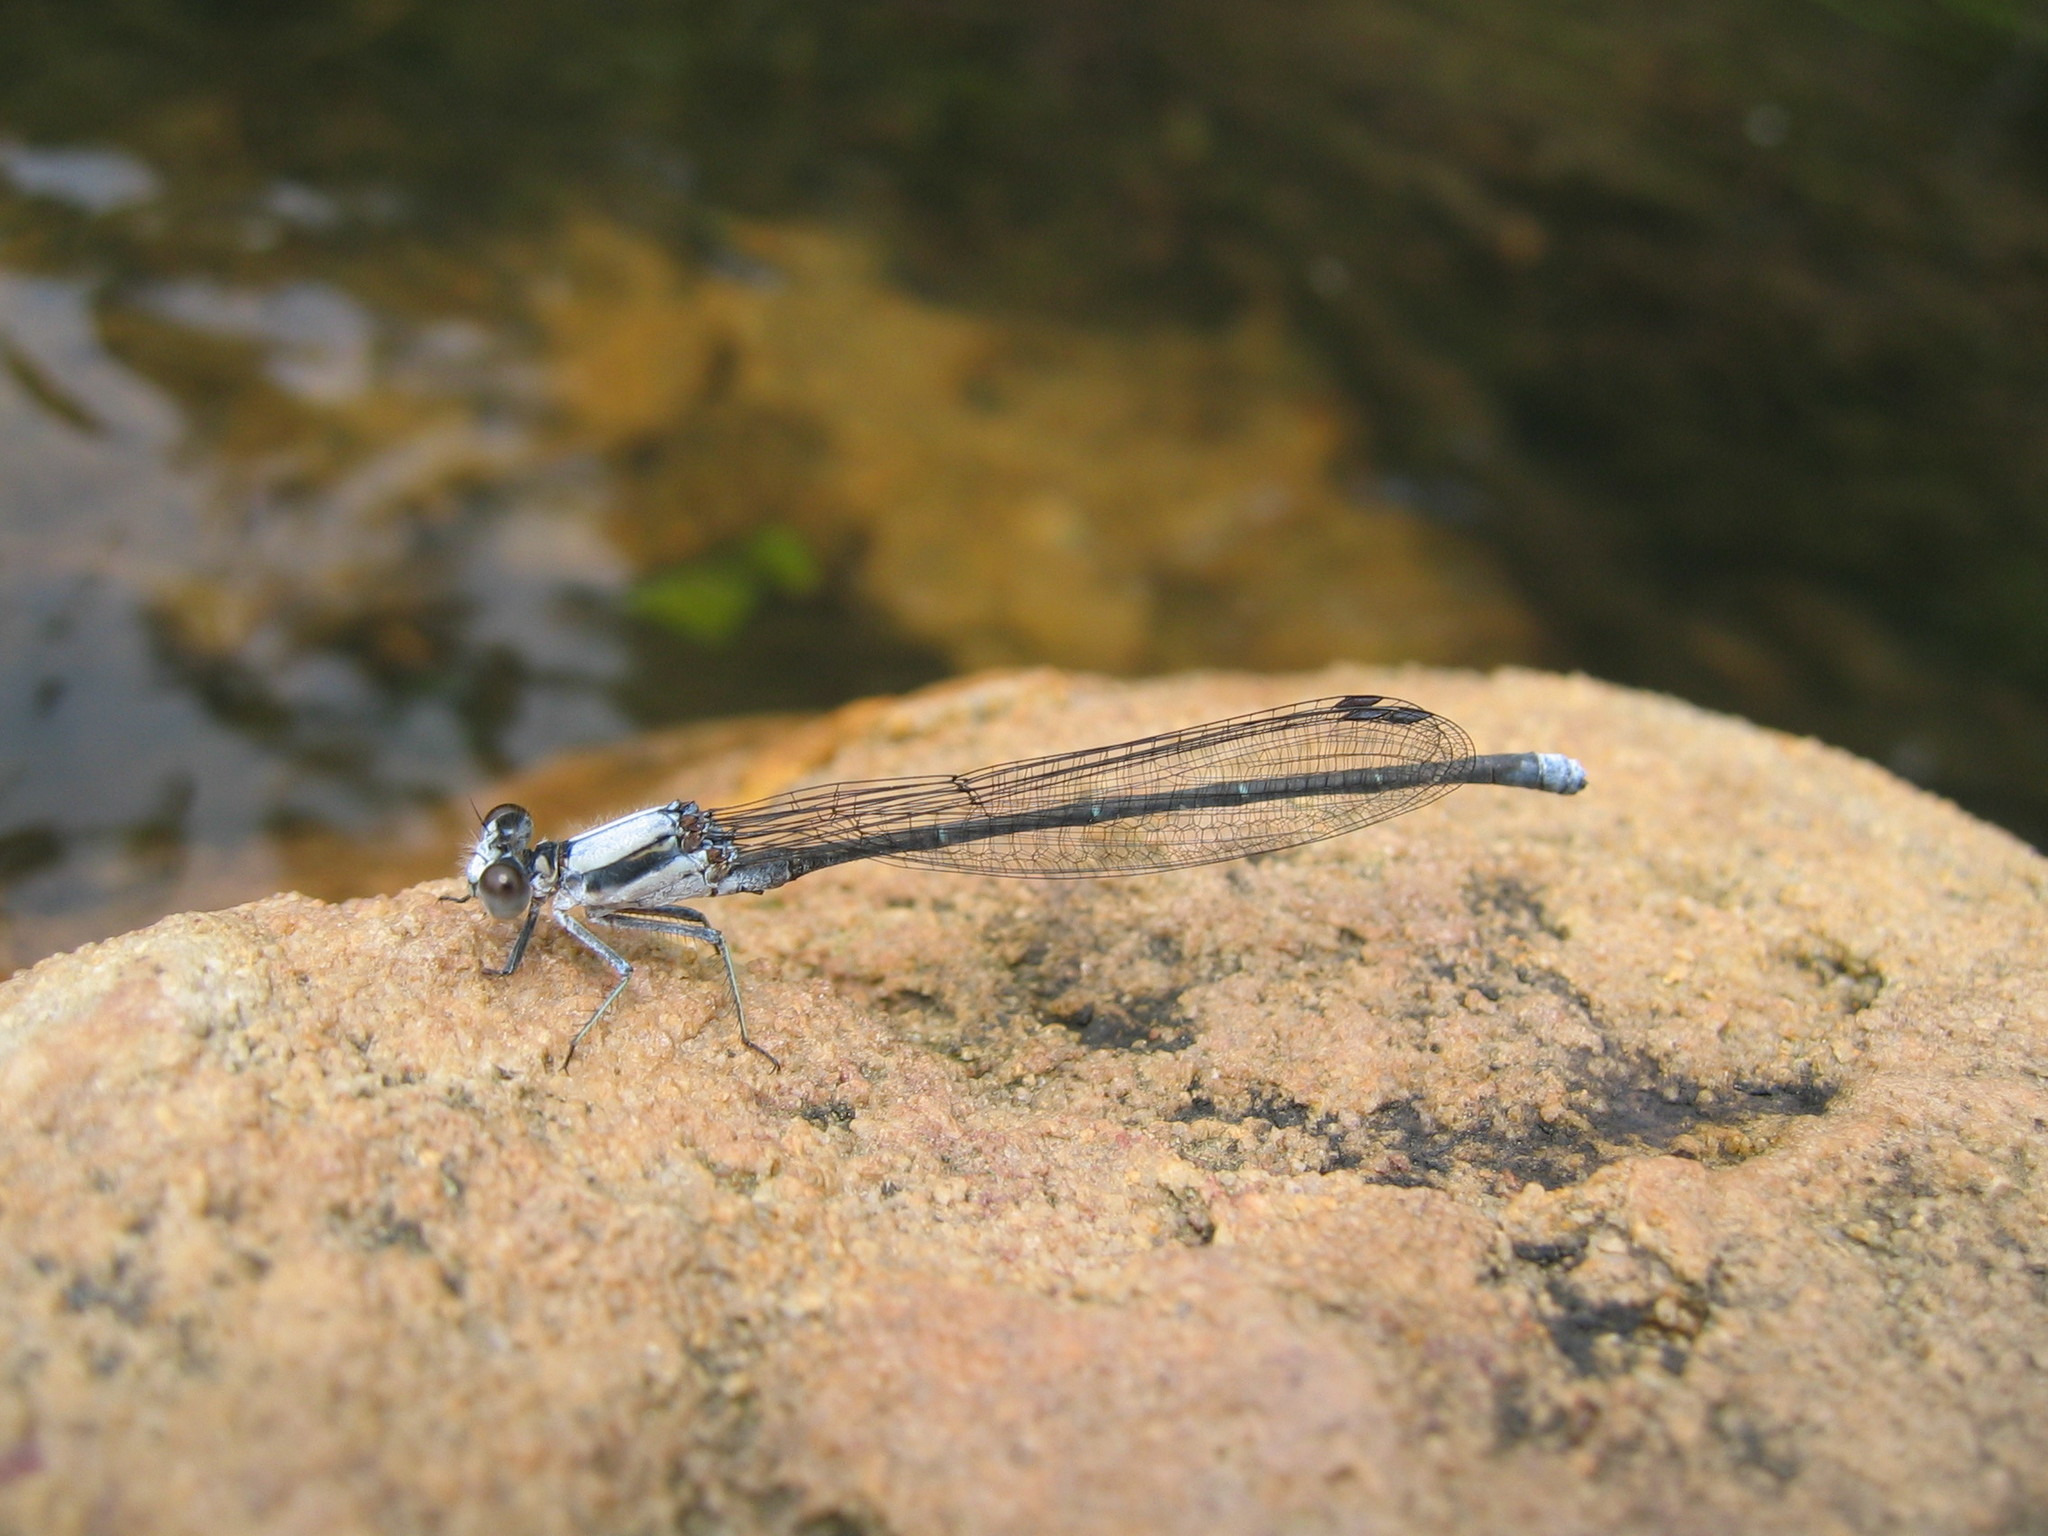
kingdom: Animalia
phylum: Arthropoda
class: Insecta
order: Odonata
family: Coenagrionidae
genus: Argia
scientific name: Argia moesta
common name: Powdered dancer
